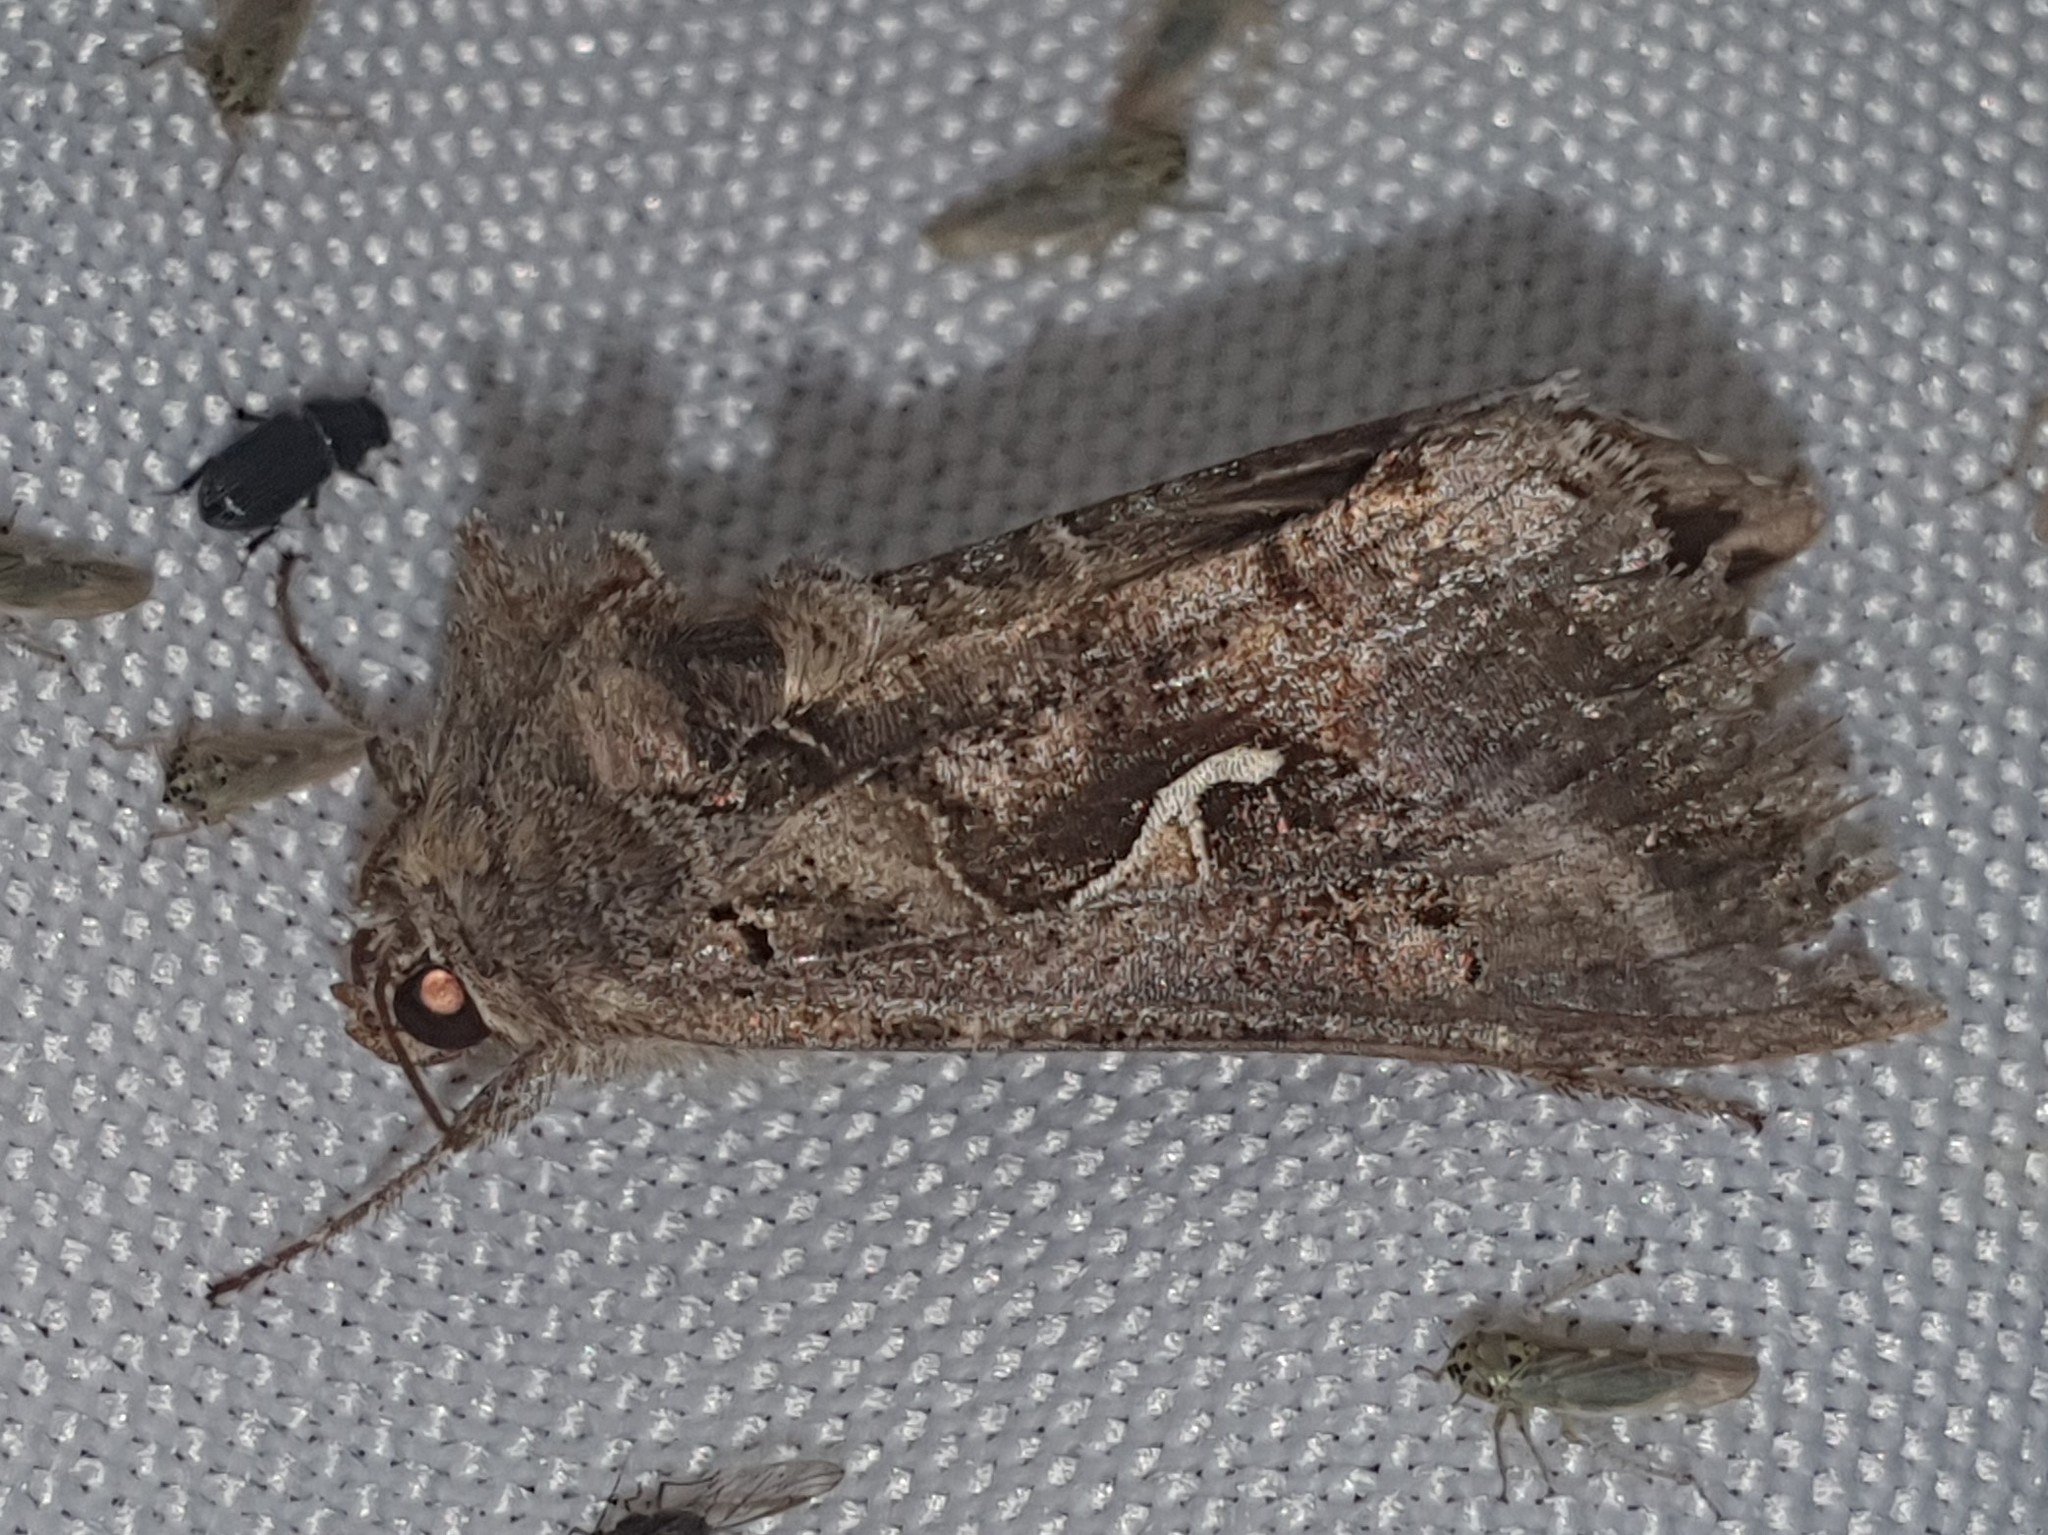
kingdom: Animalia
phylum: Arthropoda
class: Insecta
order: Lepidoptera
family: Noctuidae
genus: Autographa
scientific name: Autographa gamma
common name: Silver y
